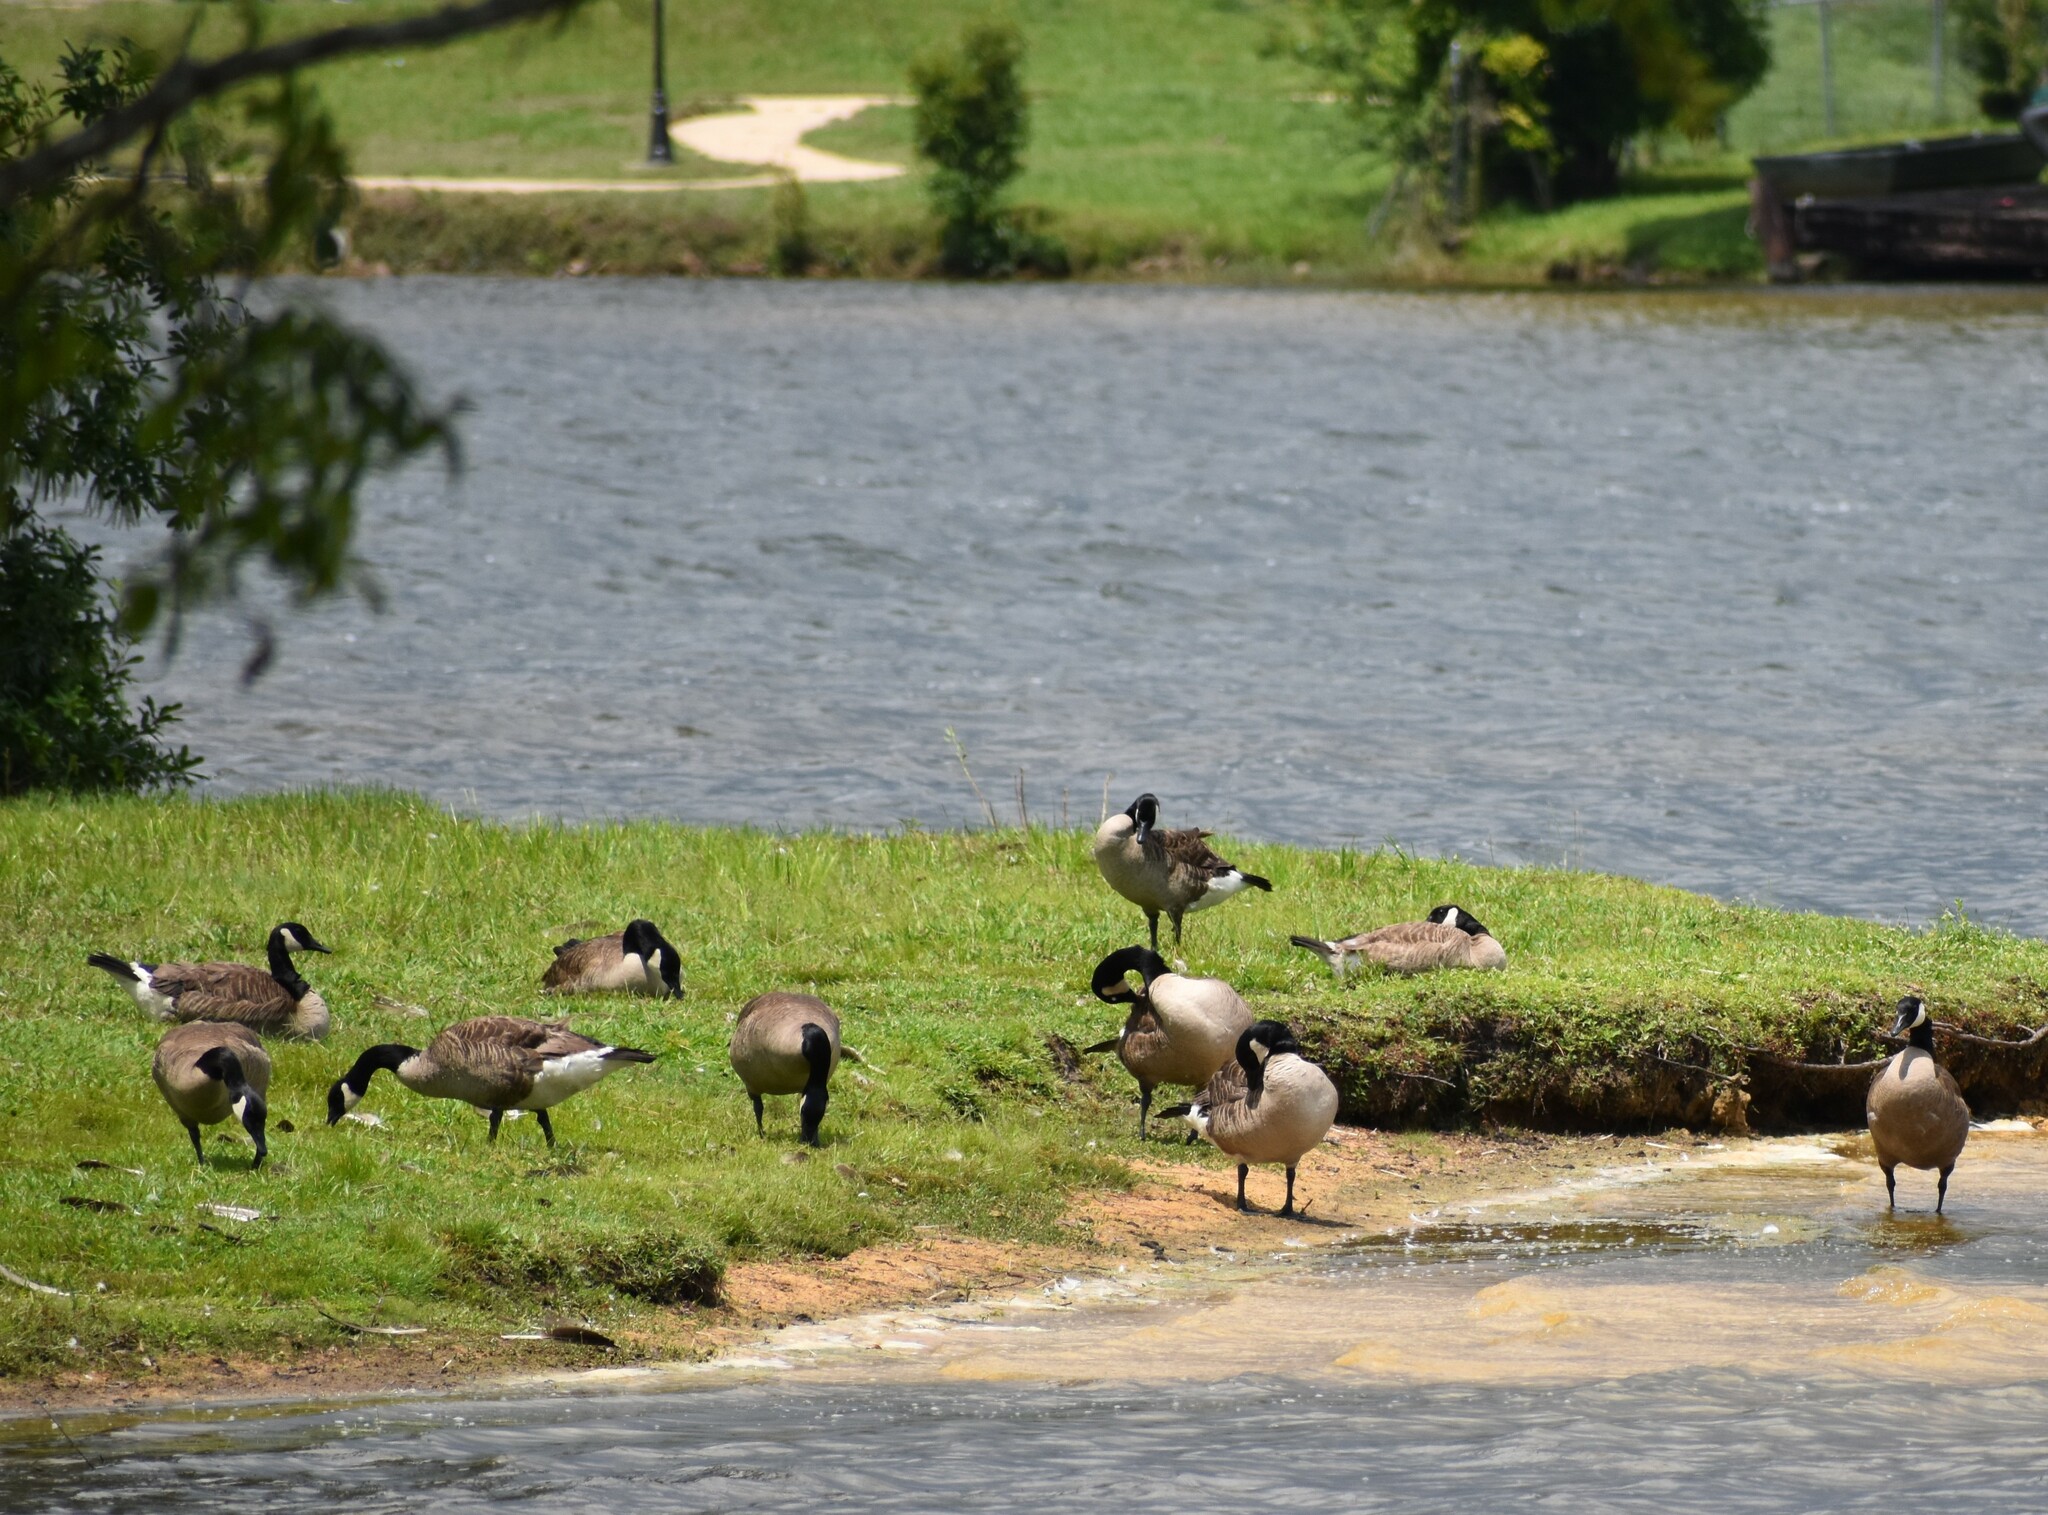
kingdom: Animalia
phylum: Chordata
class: Aves
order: Anseriformes
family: Anatidae
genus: Branta
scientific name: Branta canadensis
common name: Canada goose
